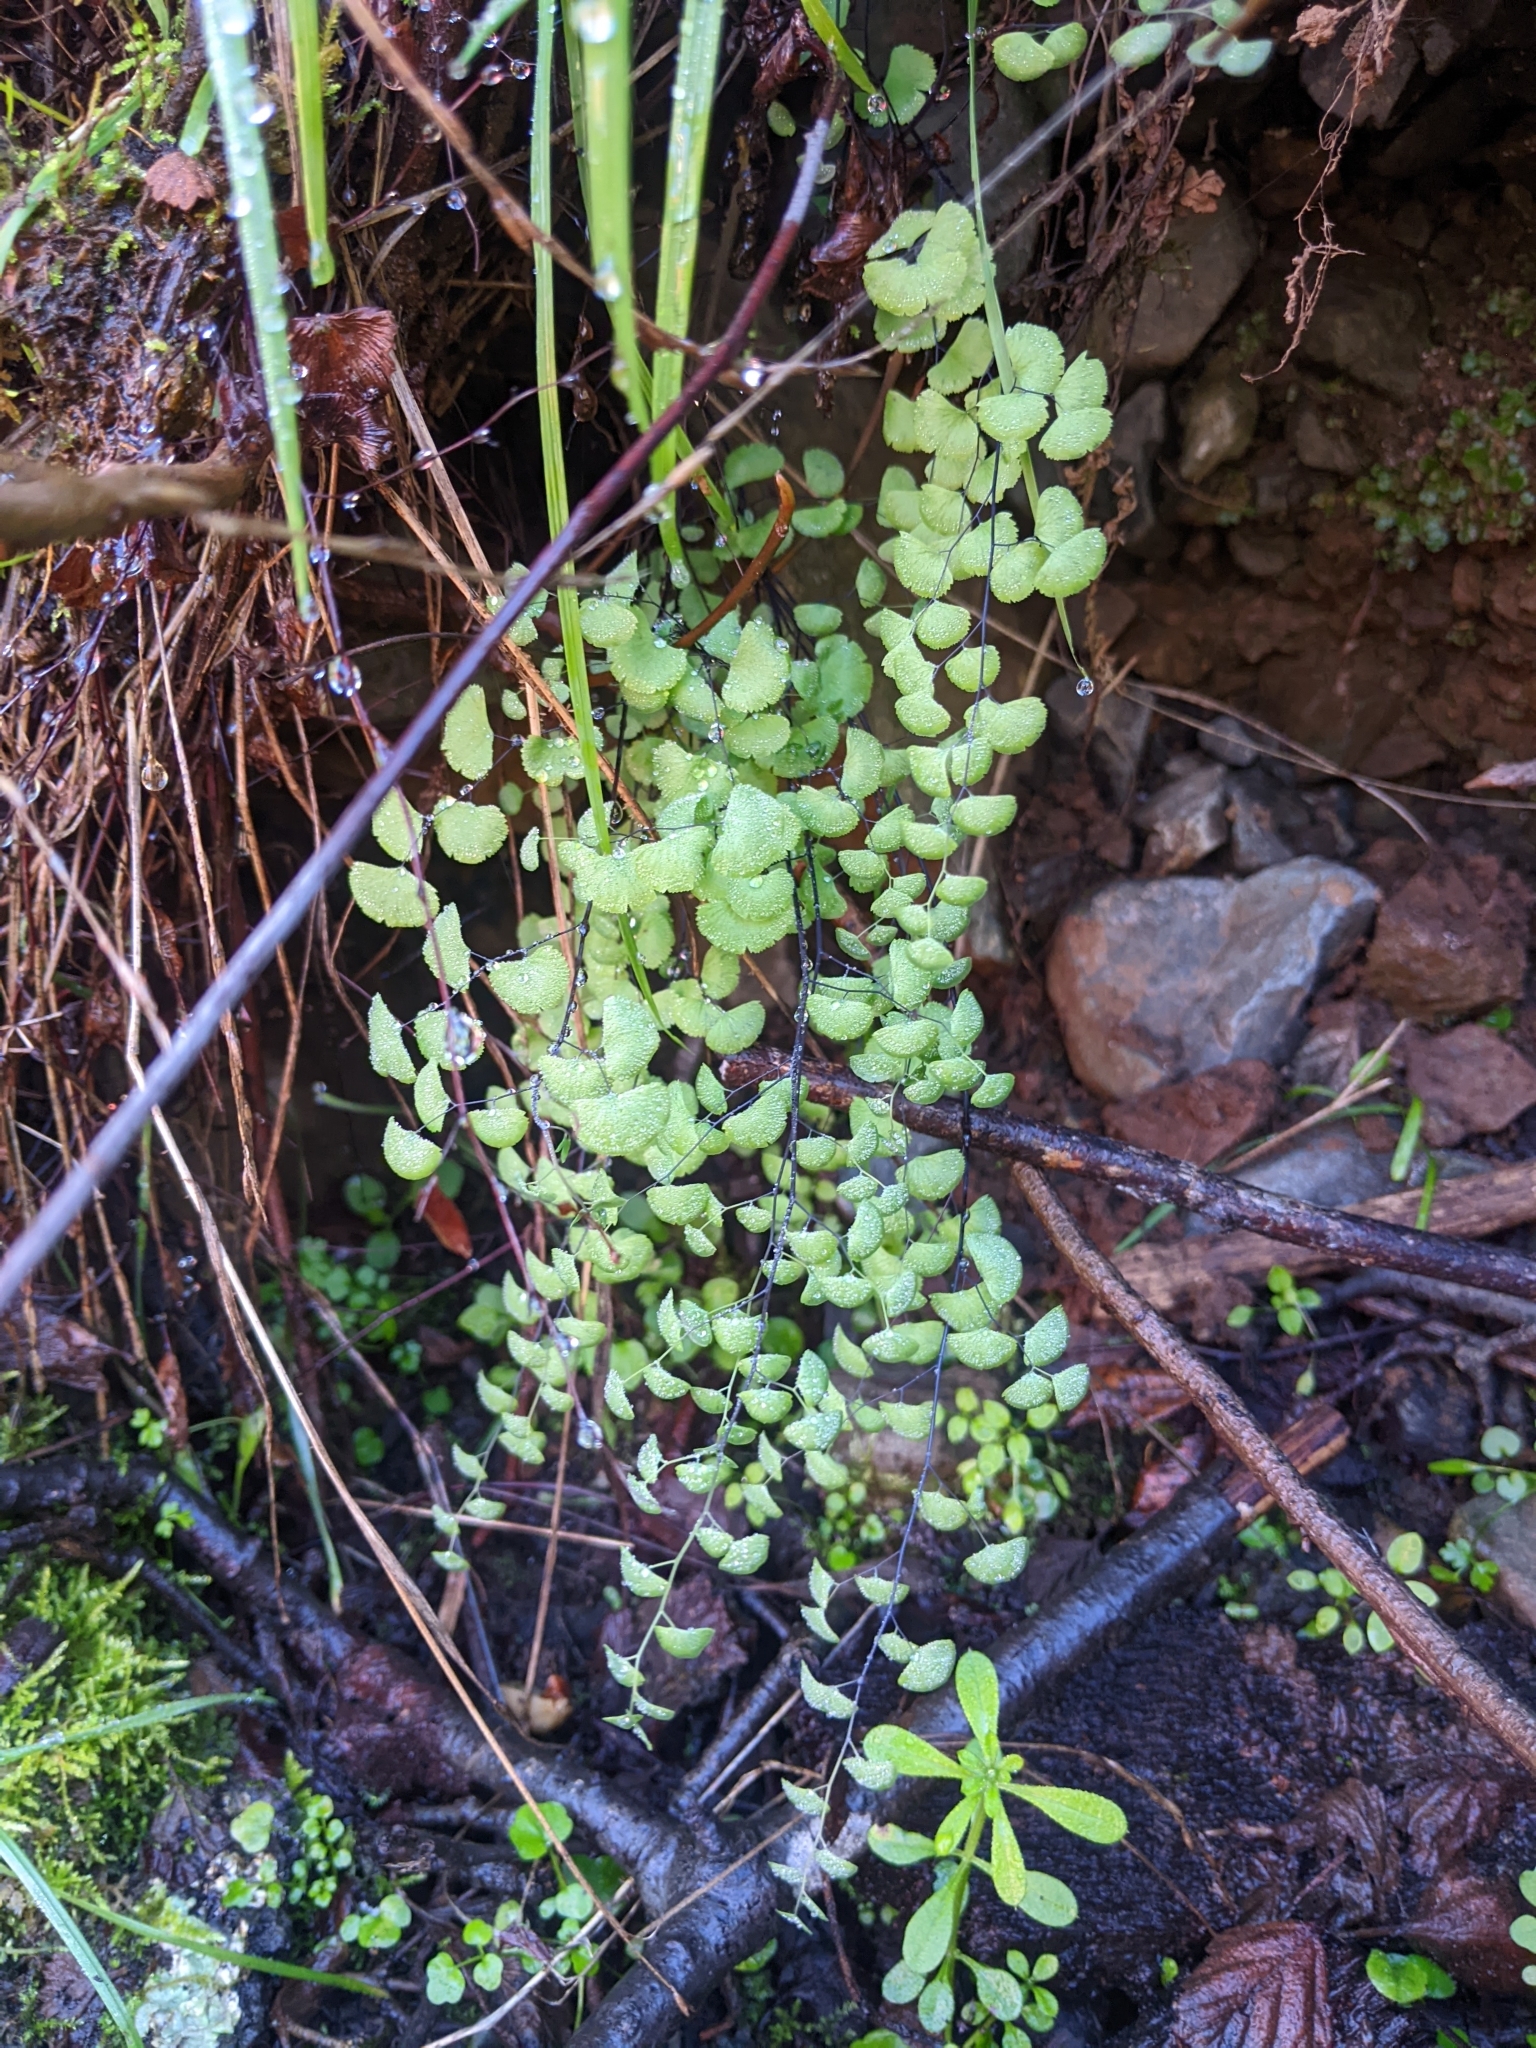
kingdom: Plantae
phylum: Tracheophyta
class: Polypodiopsida
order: Polypodiales
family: Pteridaceae
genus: Adiantum
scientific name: Adiantum jordanii
